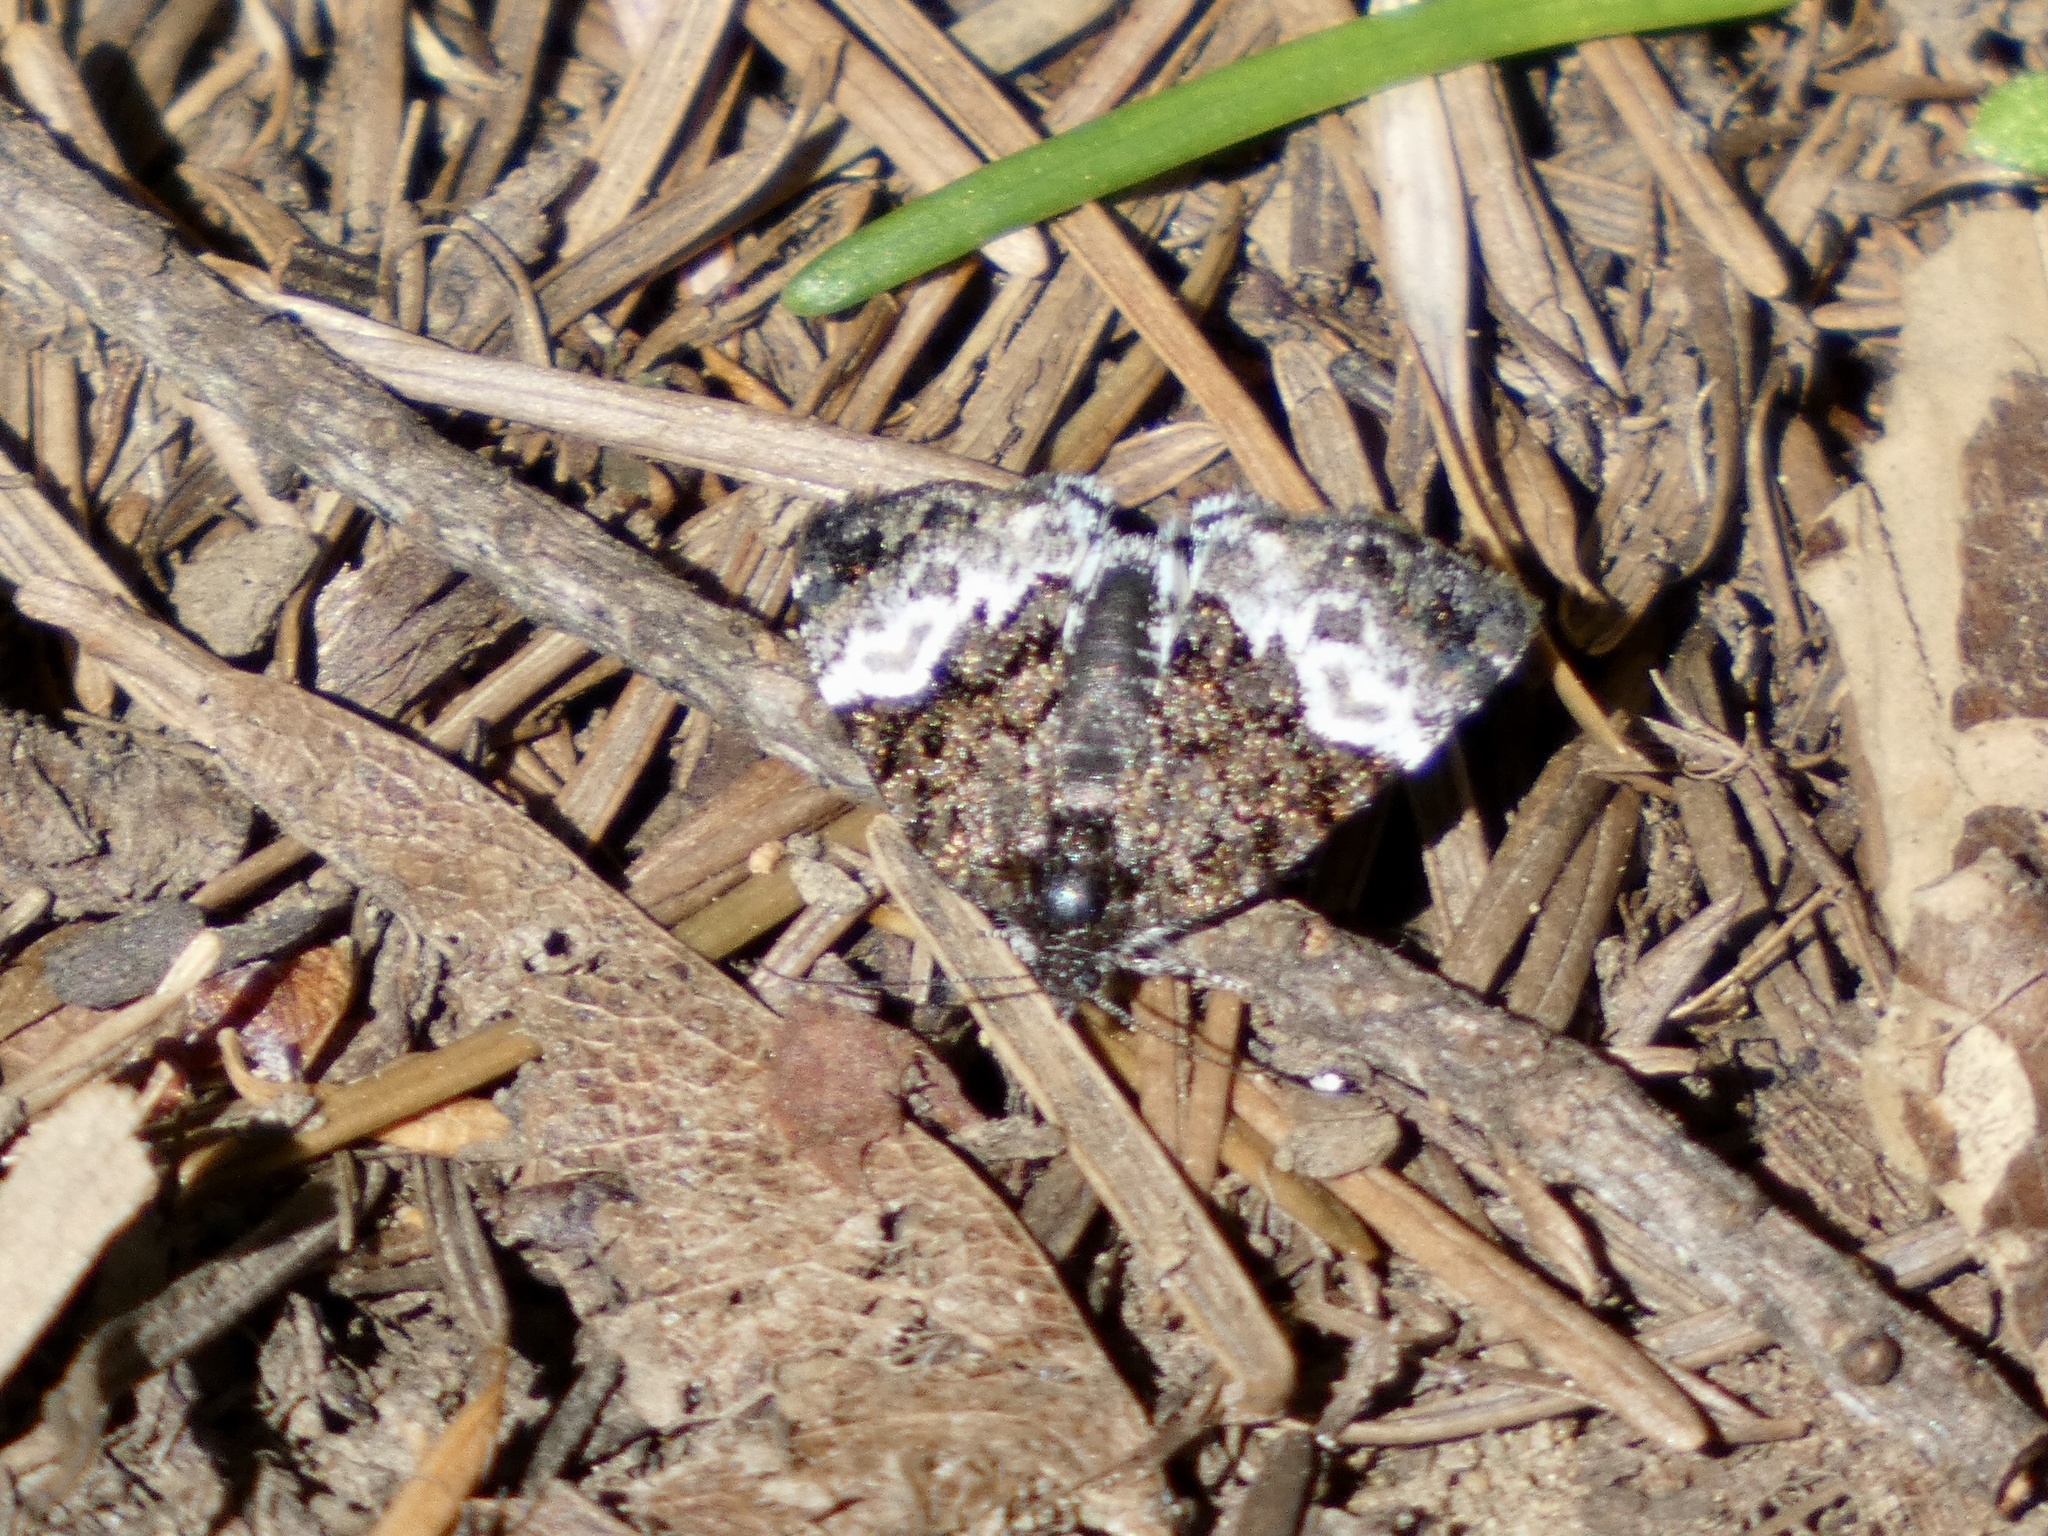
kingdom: Animalia
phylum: Arthropoda
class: Insecta
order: Lepidoptera
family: Noctuidae
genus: Annaphila
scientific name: Annaphila diva
